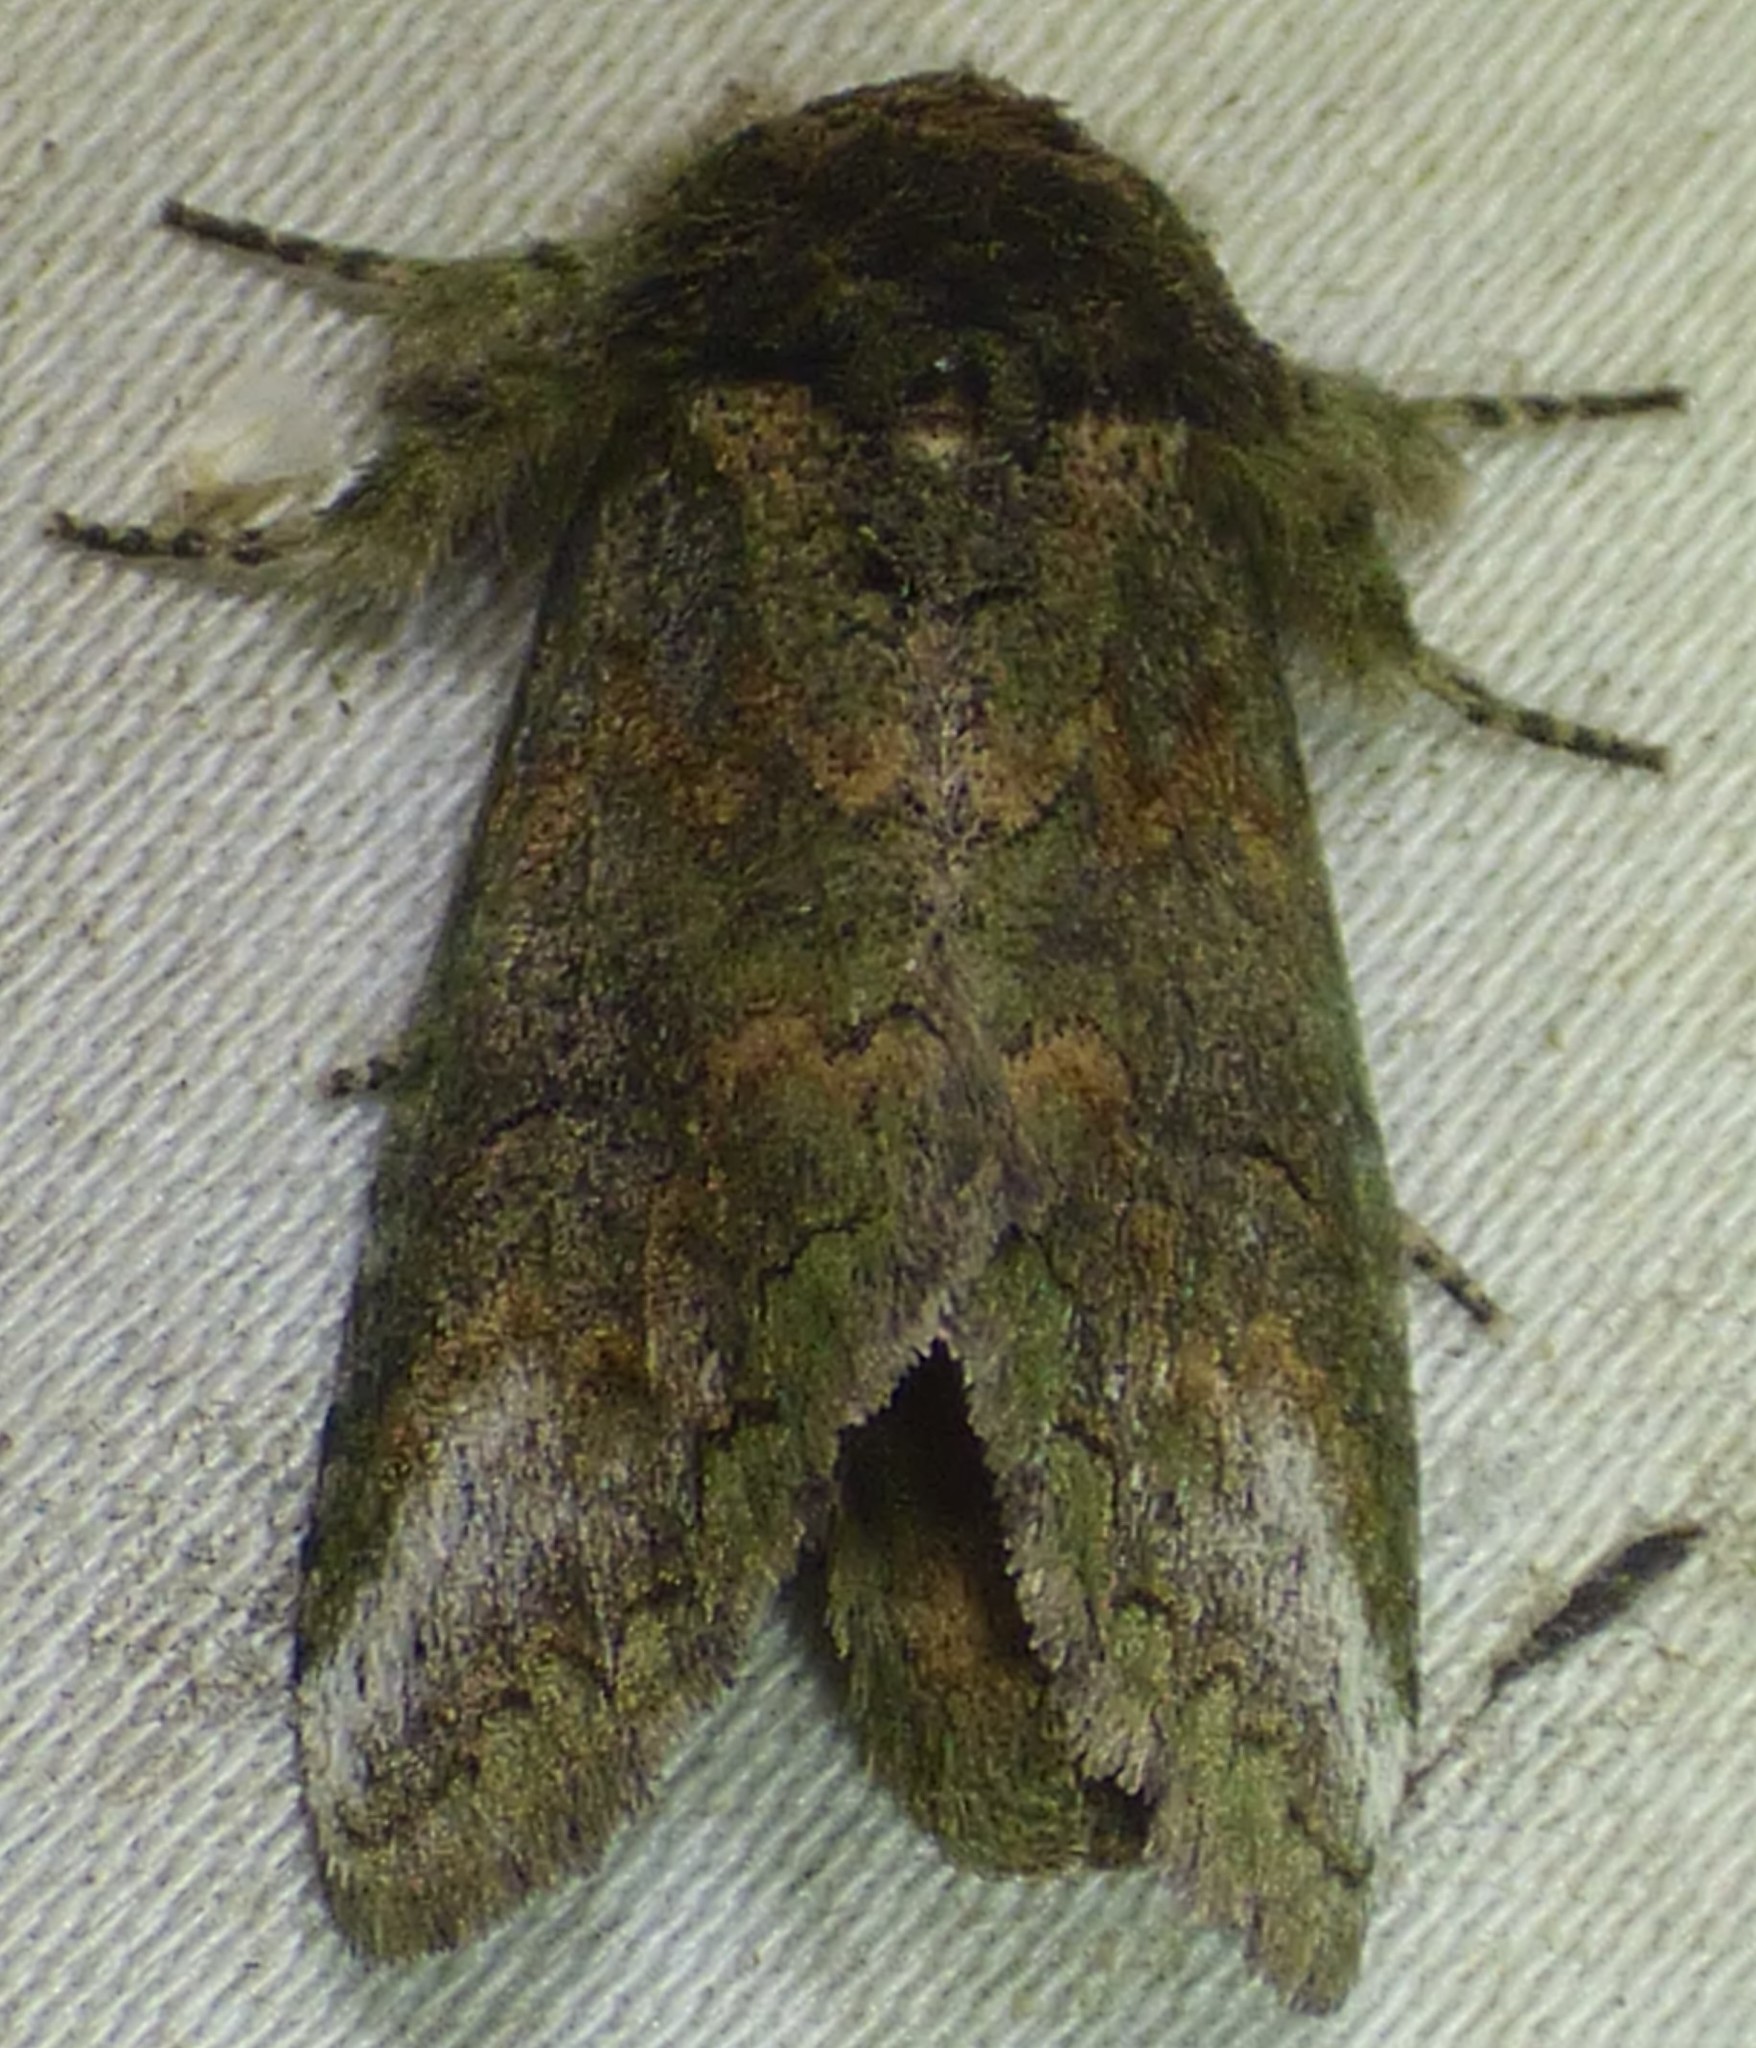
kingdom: Animalia
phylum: Arthropoda
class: Insecta
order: Lepidoptera
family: Notodontidae
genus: Rifargia
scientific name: Rifargia
